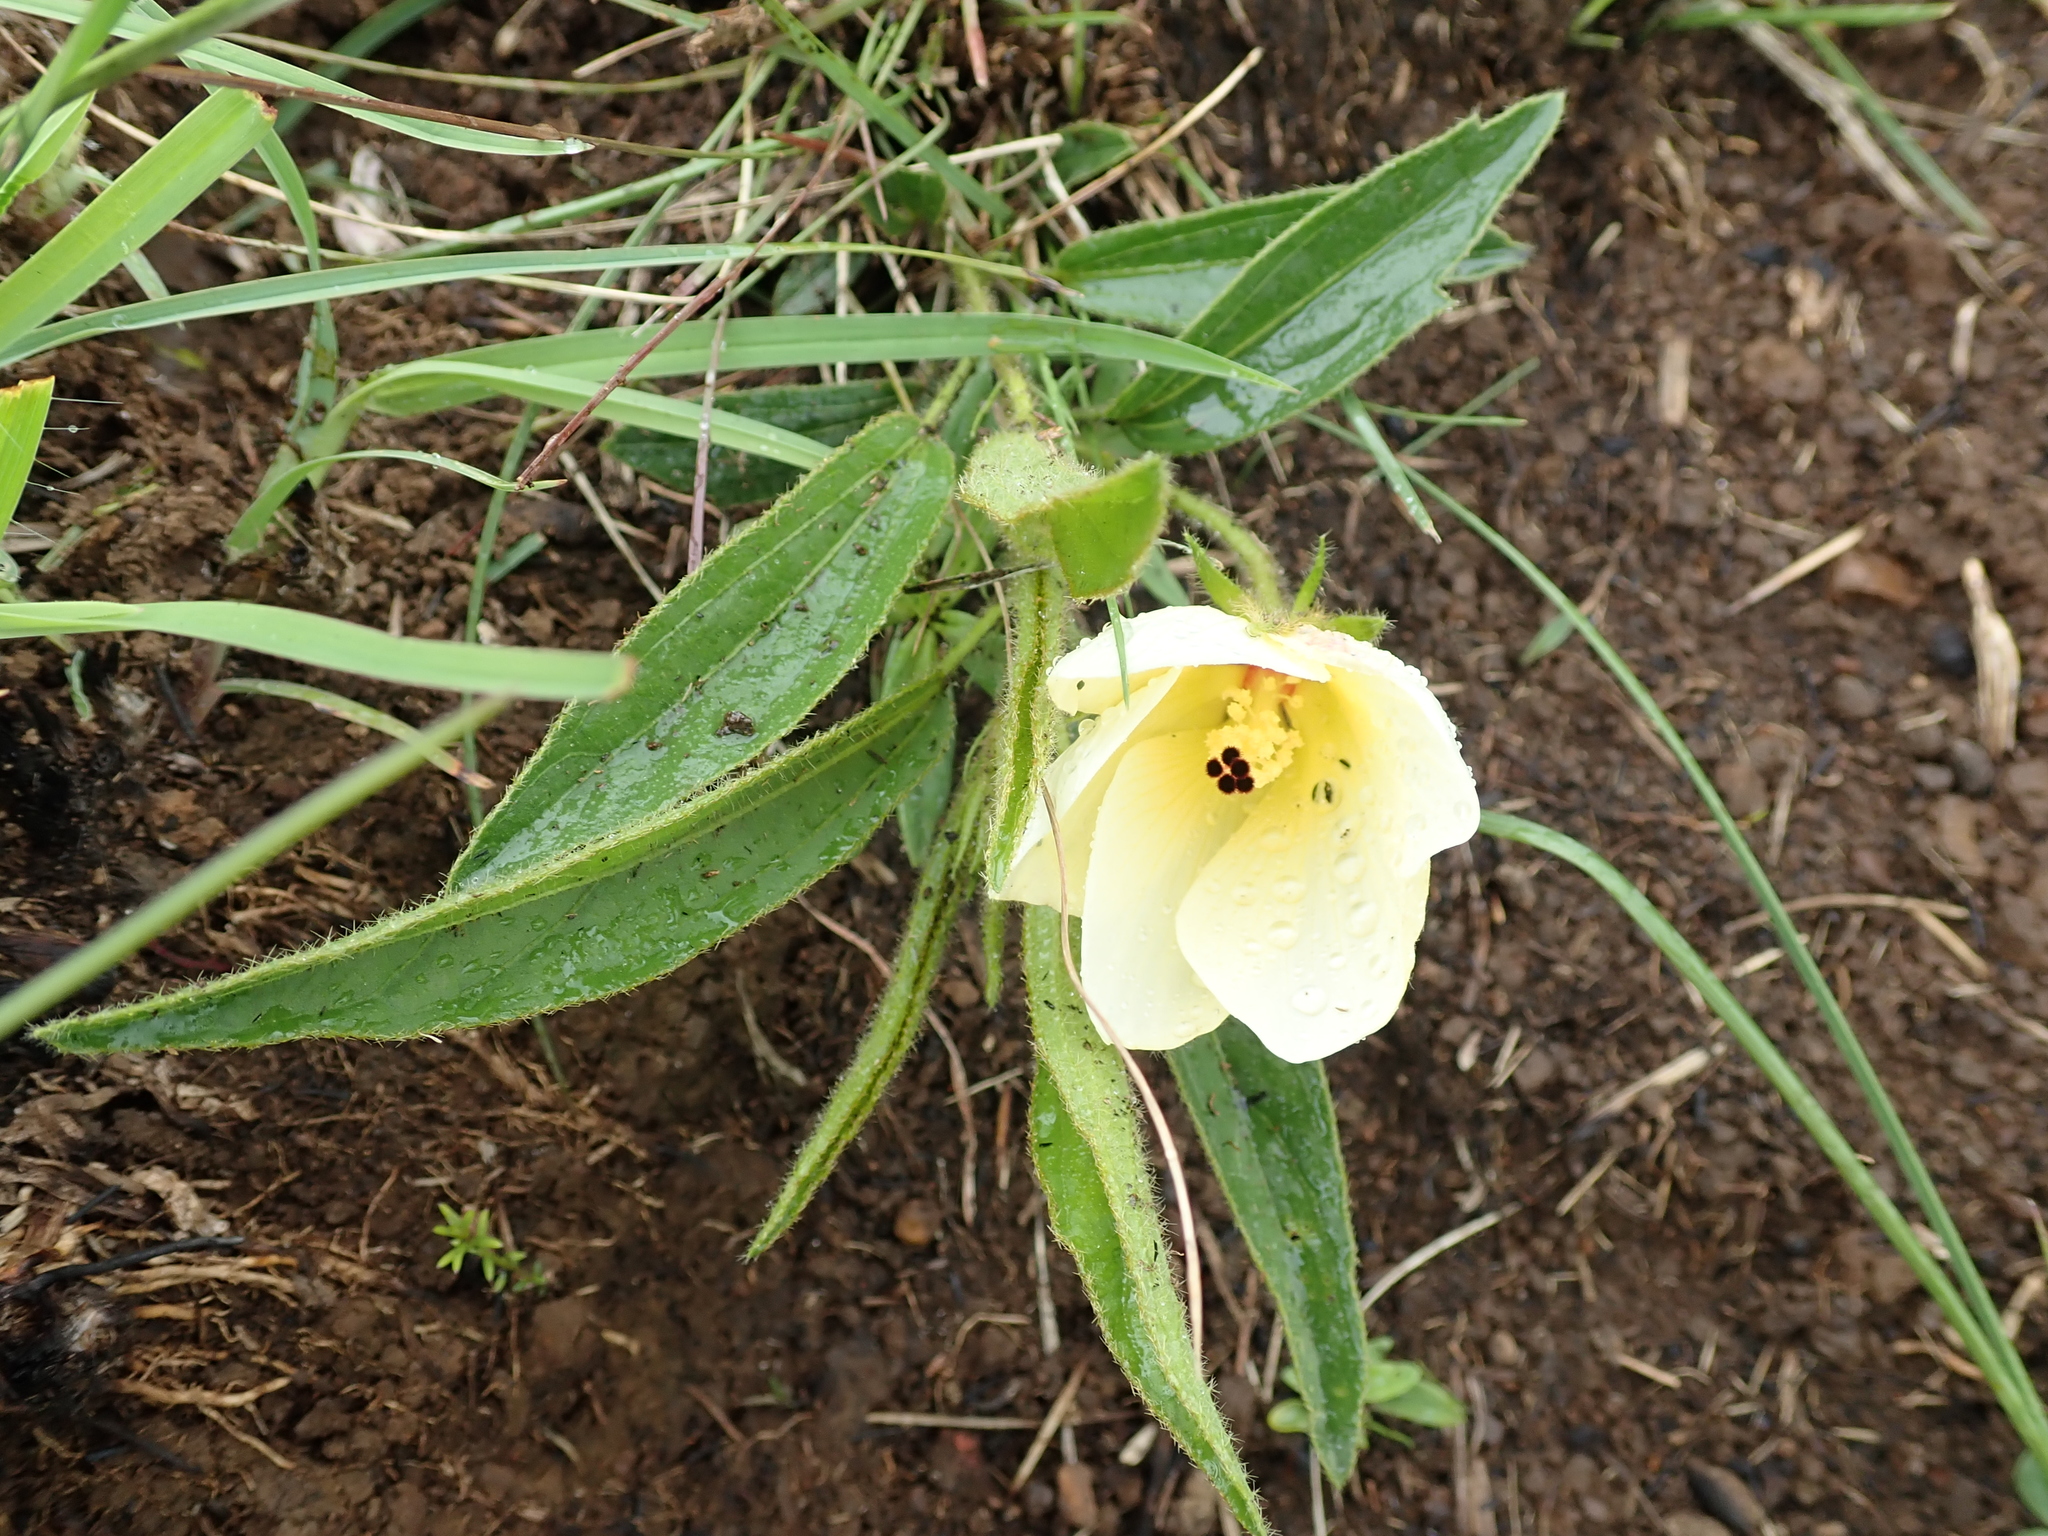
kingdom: Plantae
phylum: Tracheophyta
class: Magnoliopsida
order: Malvales
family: Malvaceae
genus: Hibiscus
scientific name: Hibiscus aethiopicus
